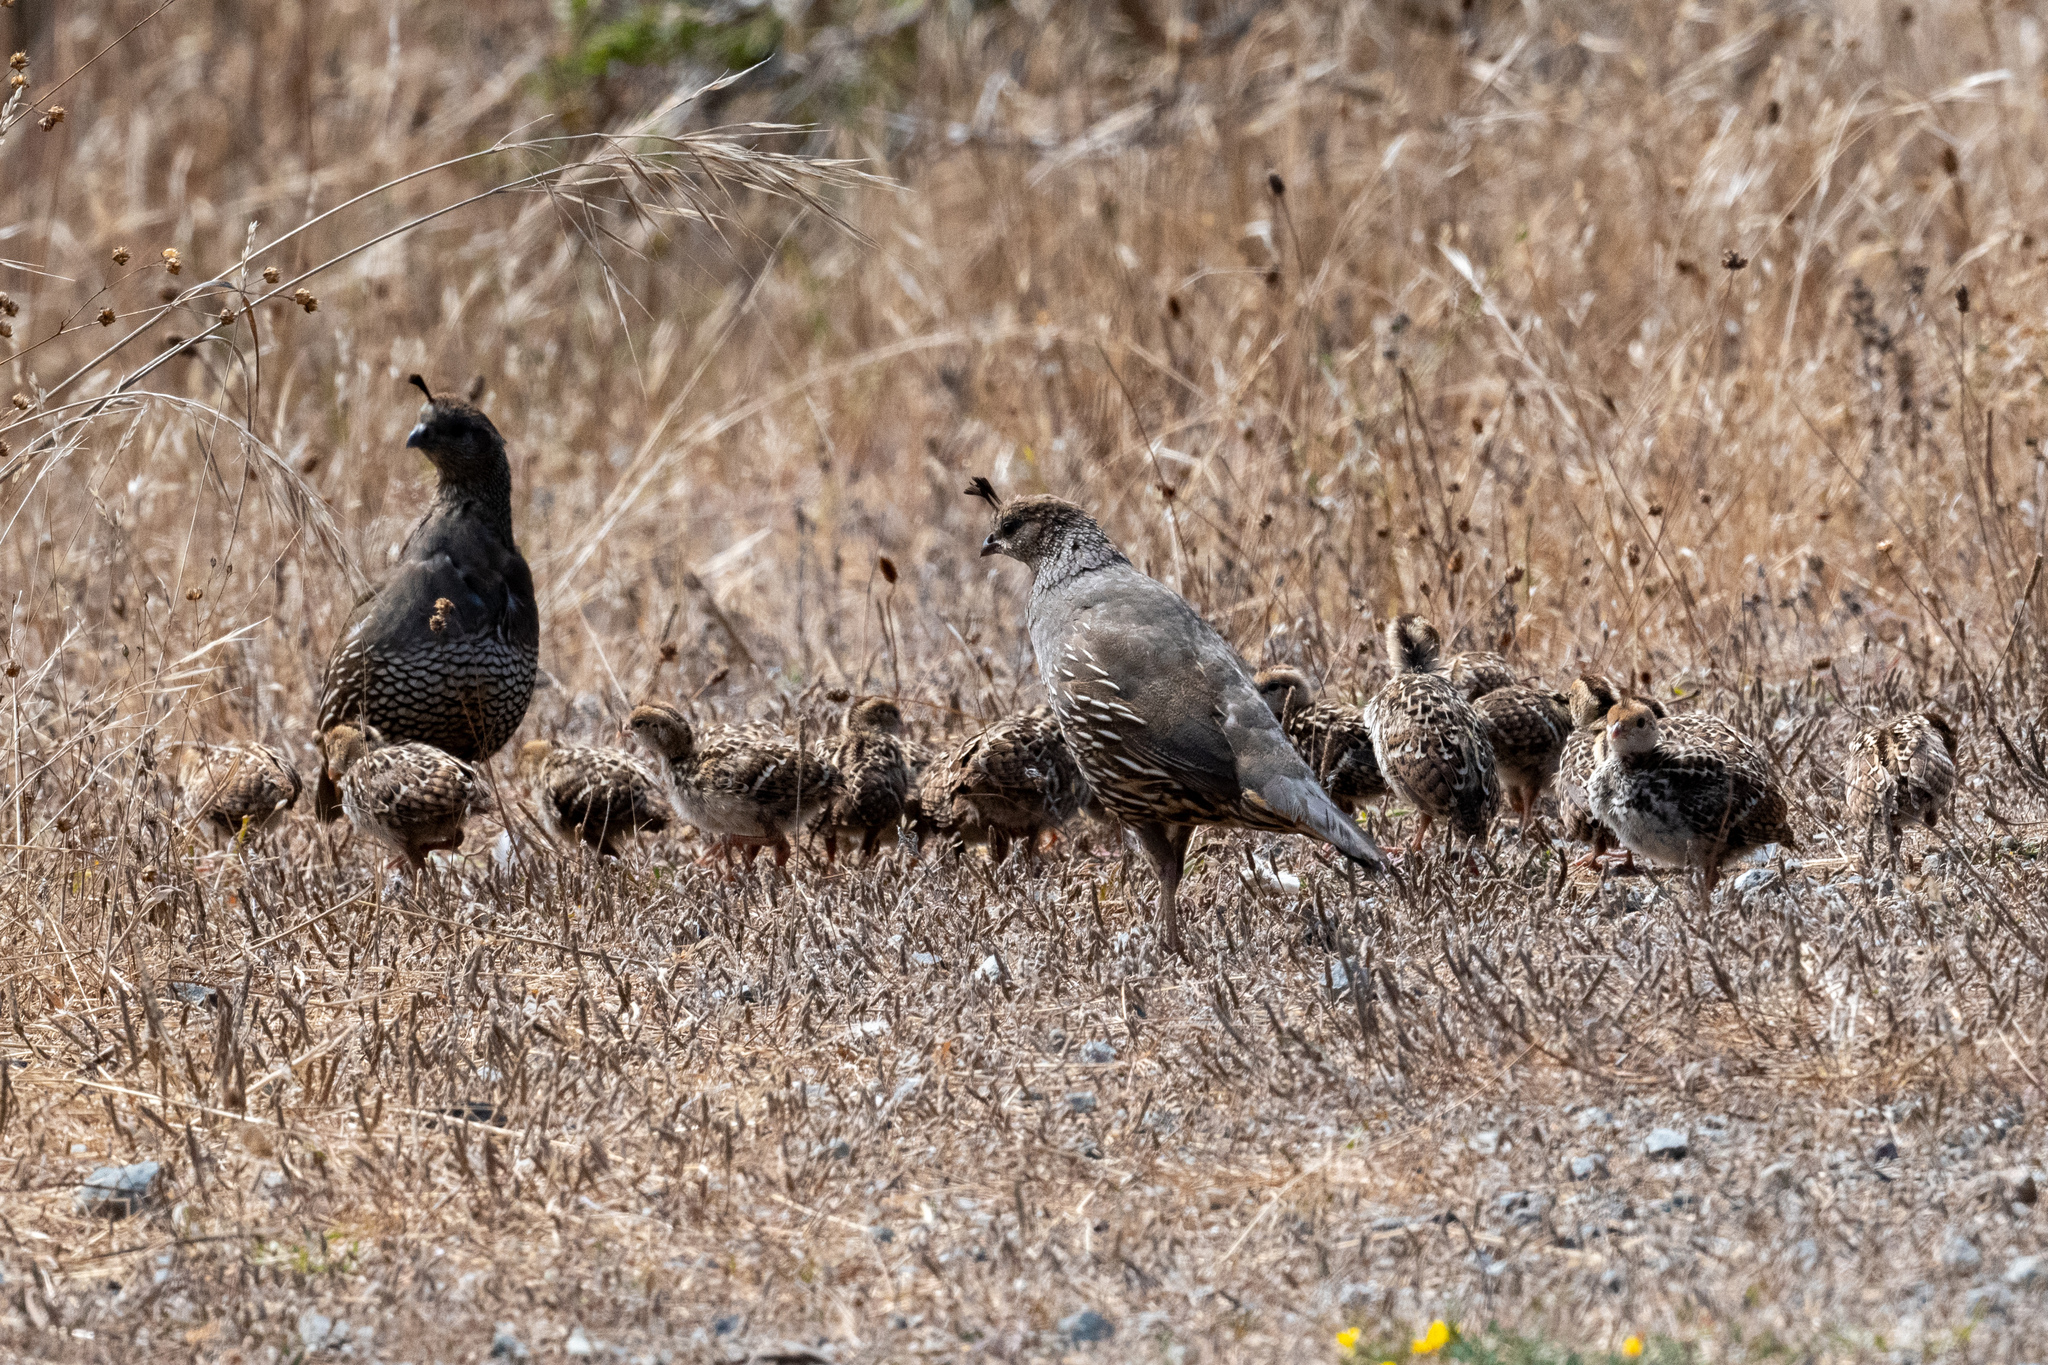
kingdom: Animalia
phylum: Chordata
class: Aves
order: Galliformes
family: Odontophoridae
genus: Callipepla
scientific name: Callipepla californica
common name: California quail
